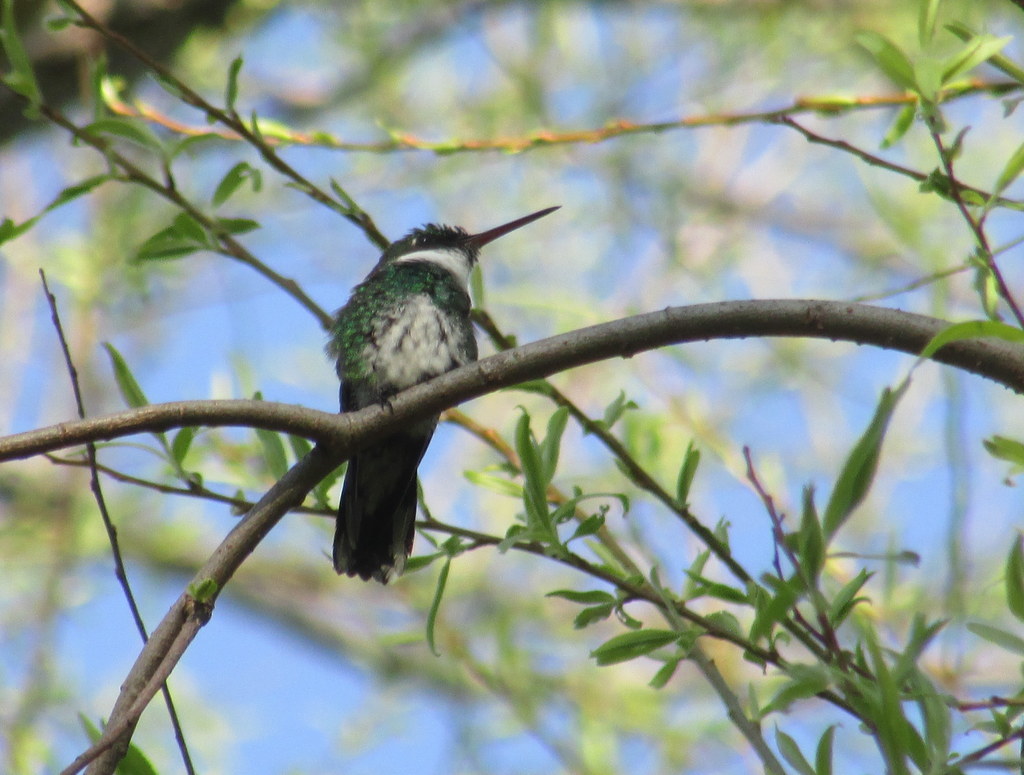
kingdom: Animalia
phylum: Chordata
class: Aves
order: Apodiformes
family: Trochilidae
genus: Leucochloris
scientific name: Leucochloris albicollis
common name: White-throated hummingbird
